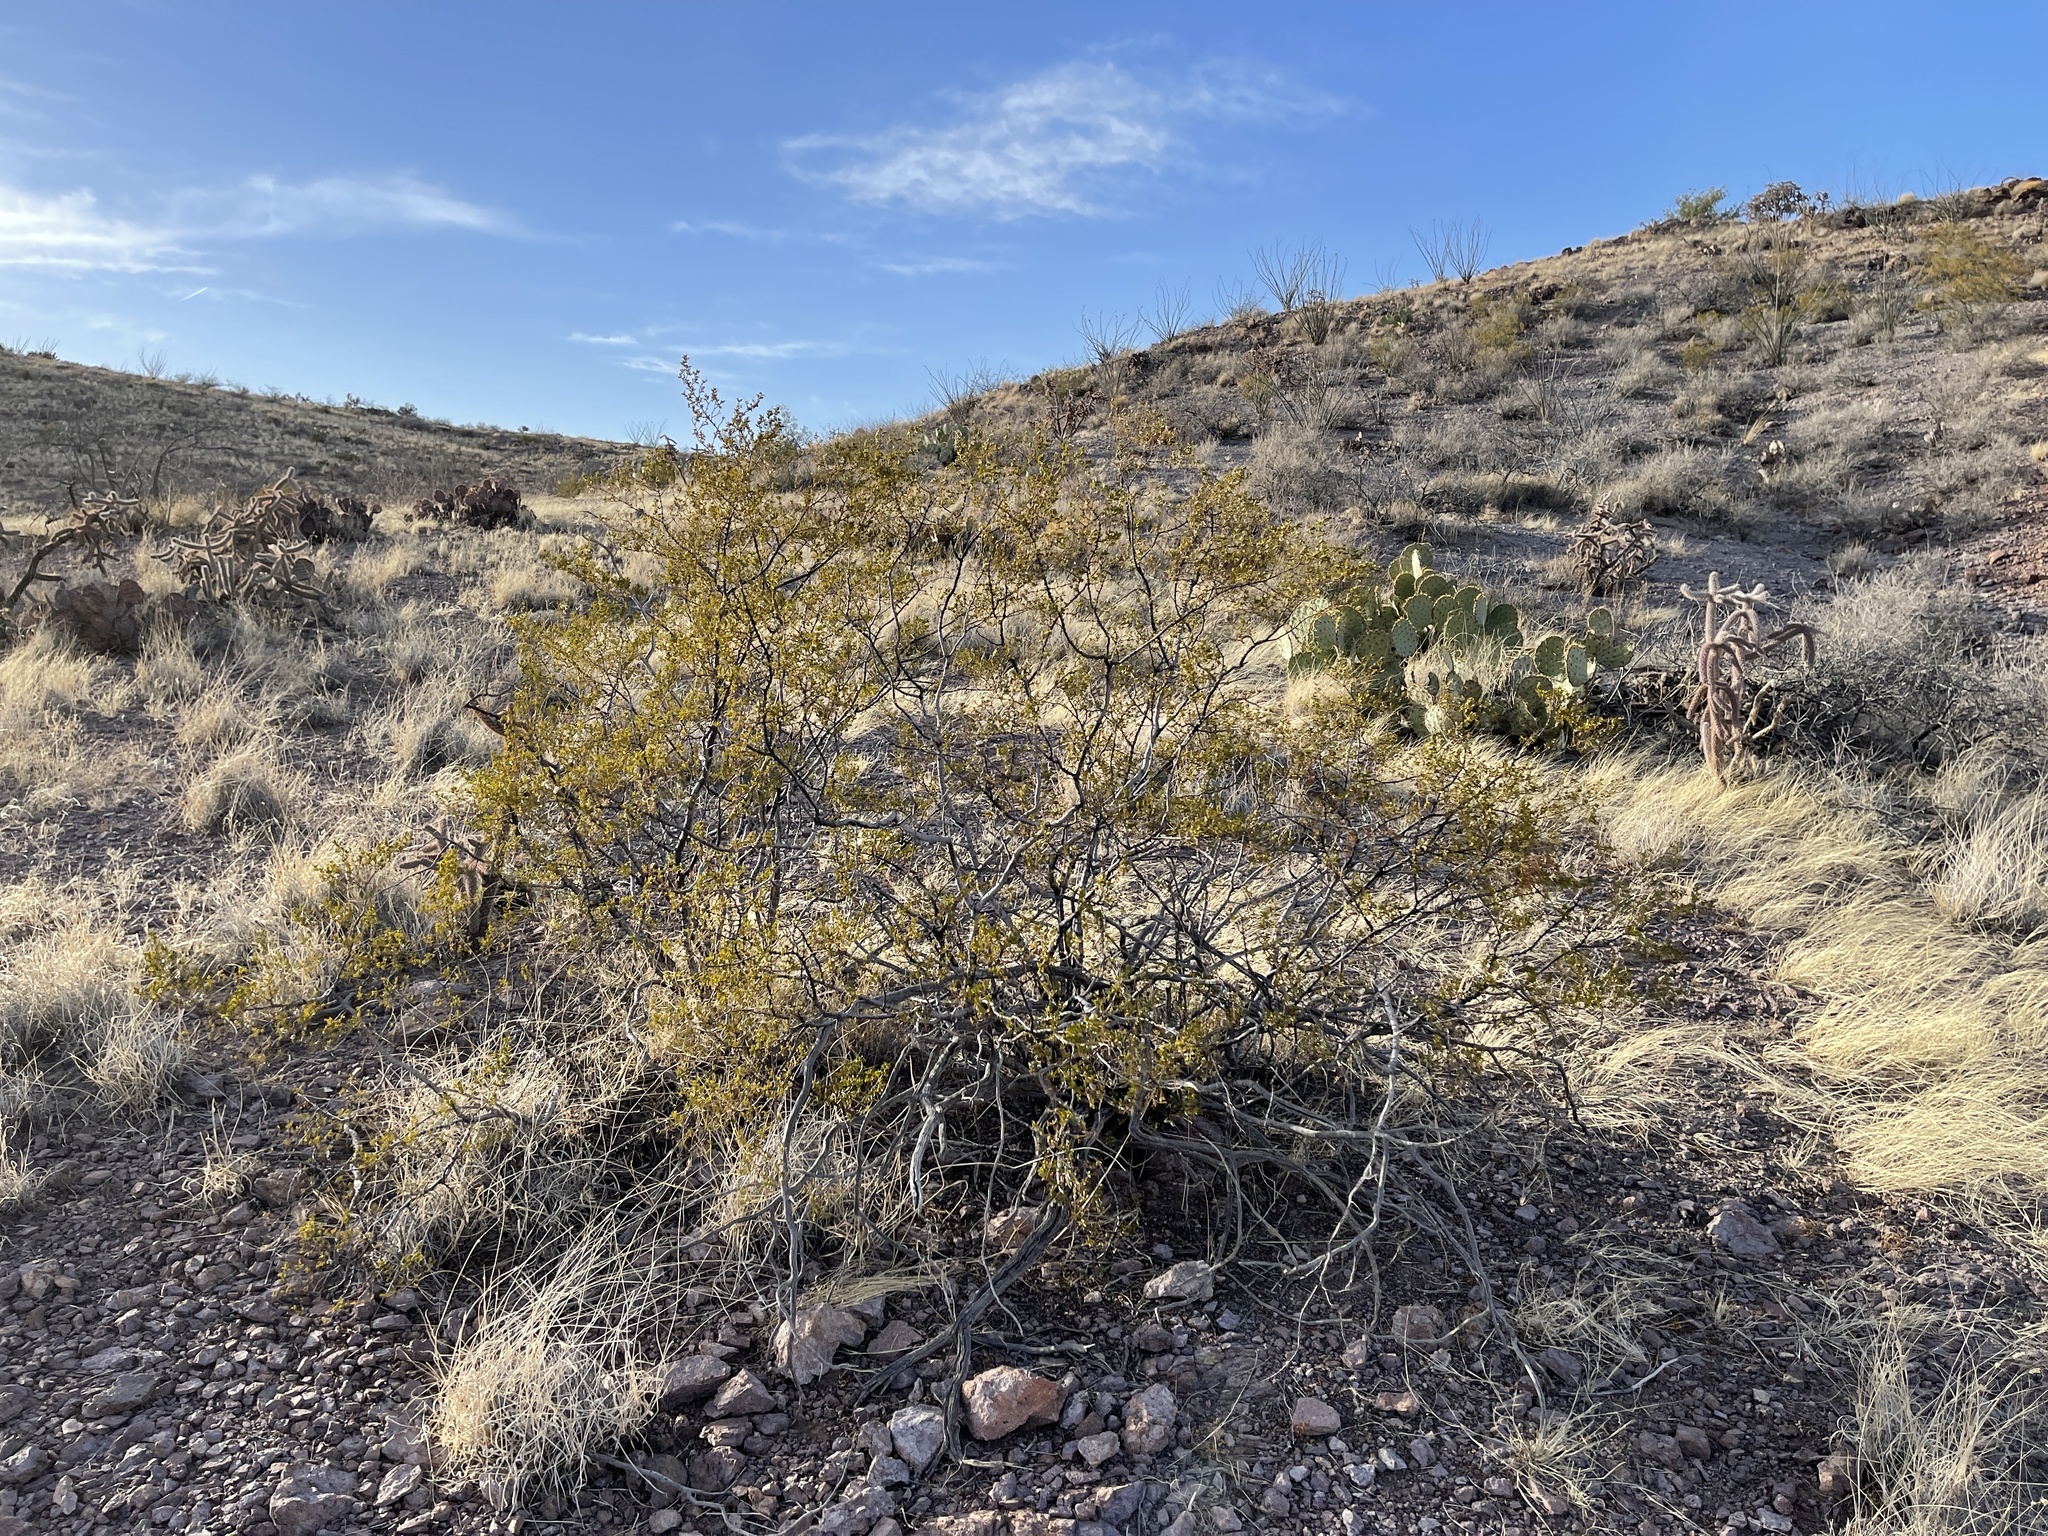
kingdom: Plantae
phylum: Tracheophyta
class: Magnoliopsida
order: Zygophyllales
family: Zygophyllaceae
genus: Larrea
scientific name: Larrea tridentata
